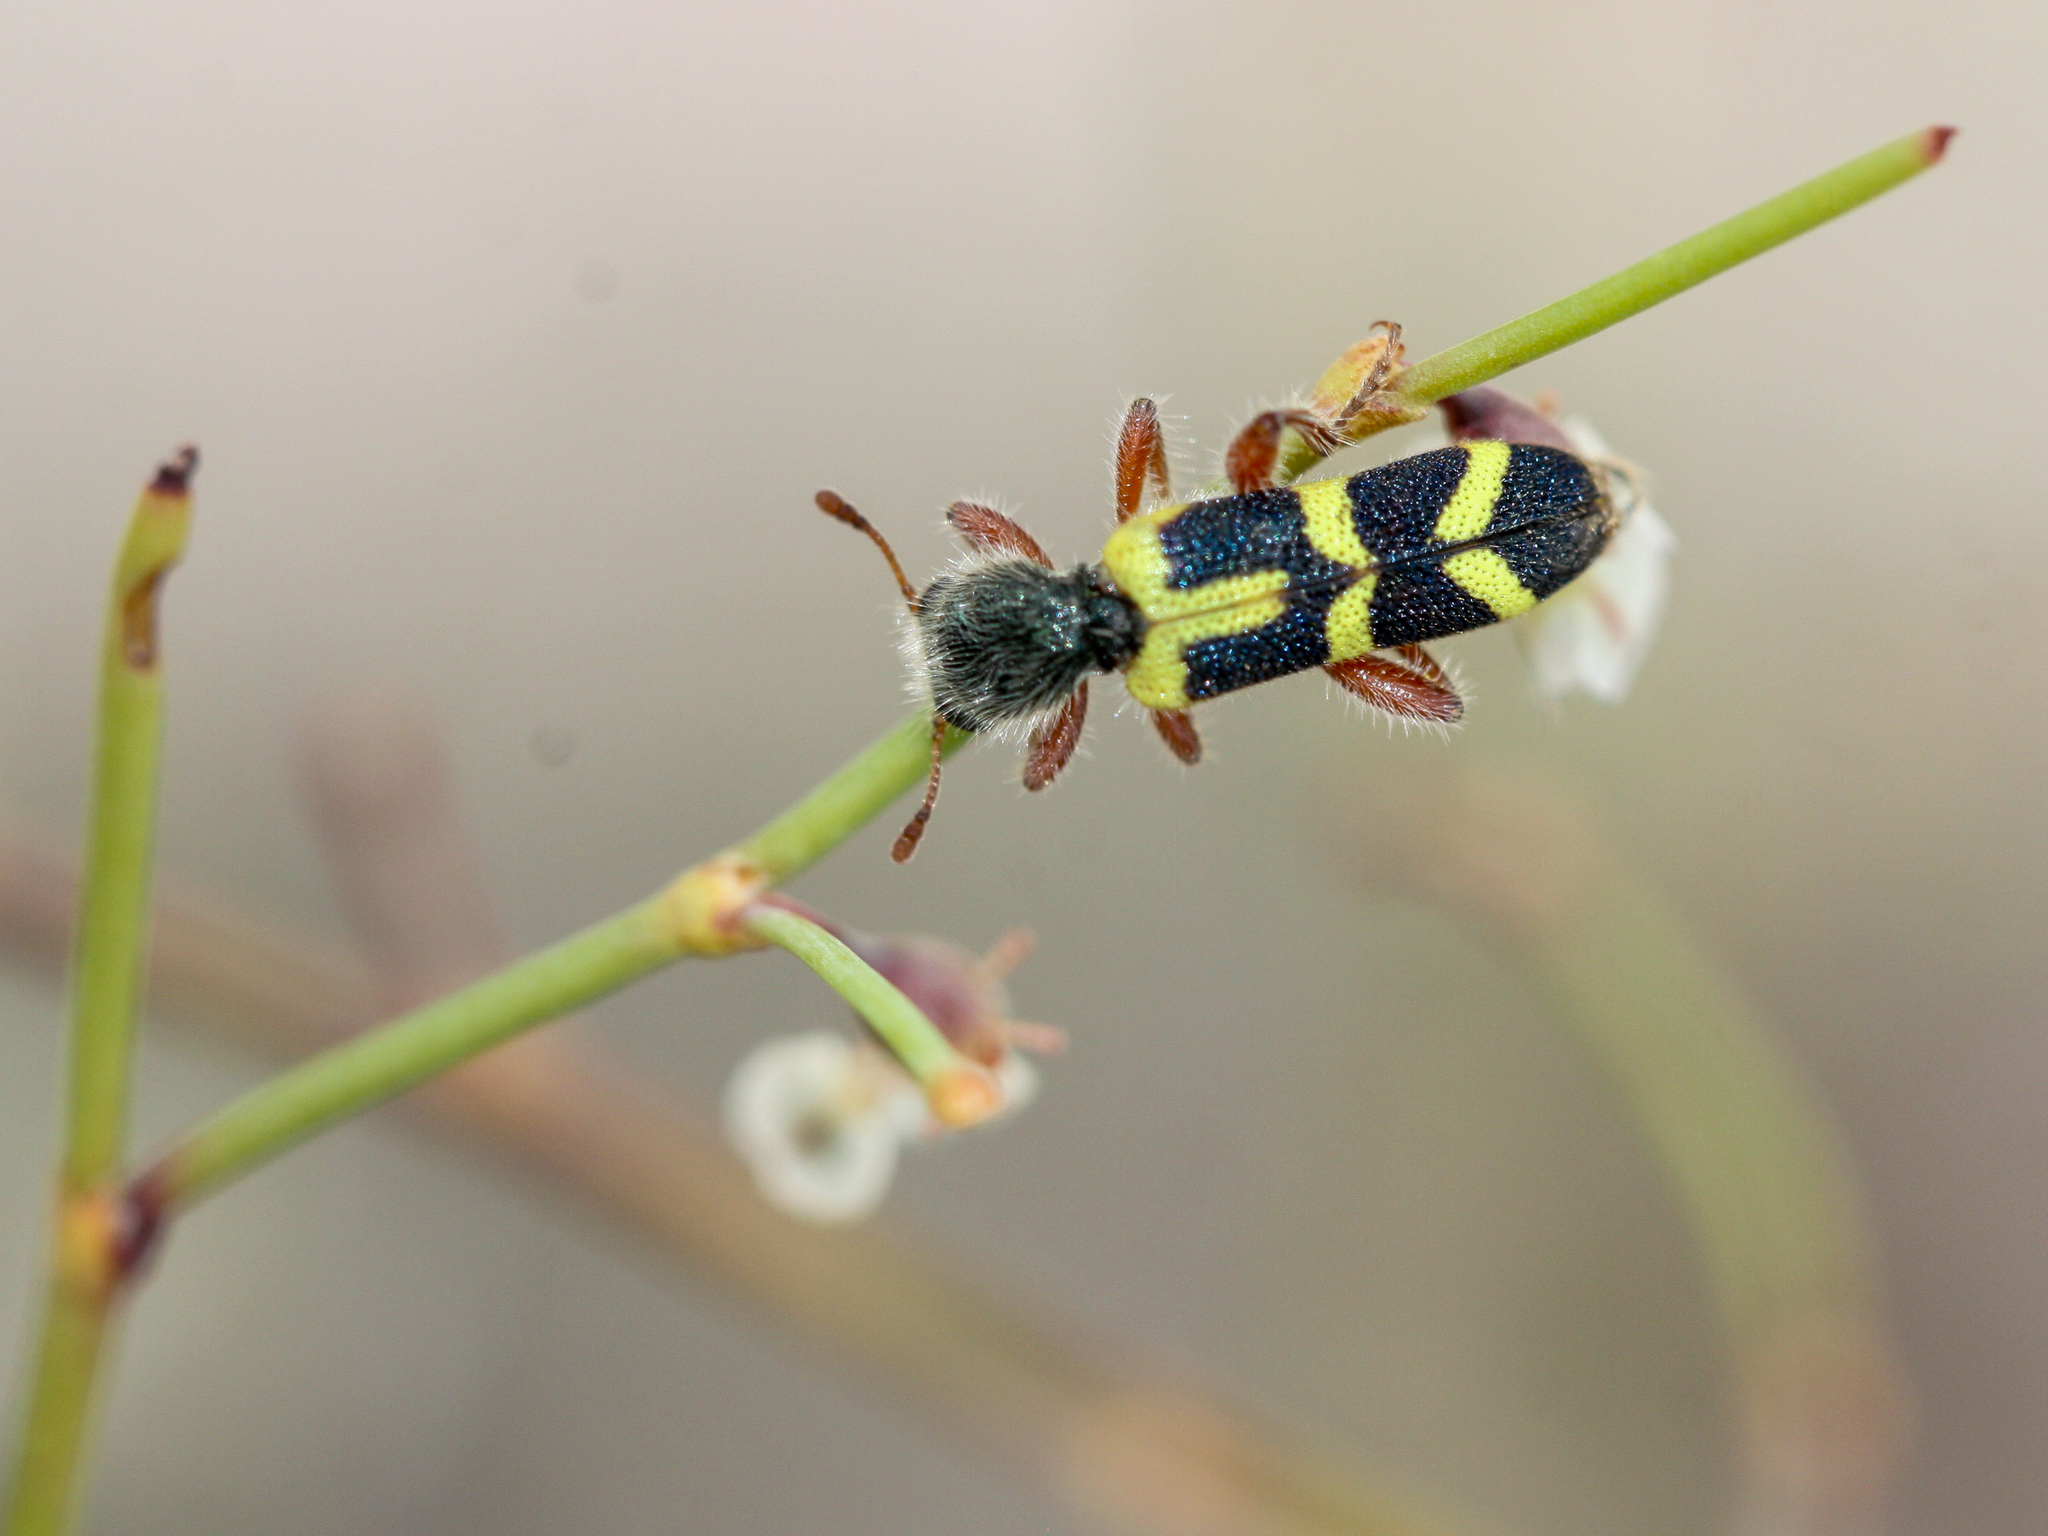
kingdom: Animalia
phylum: Arthropoda
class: Insecta
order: Coleoptera
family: Cleridae
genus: Trichodes
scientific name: Trichodes peninsularis
